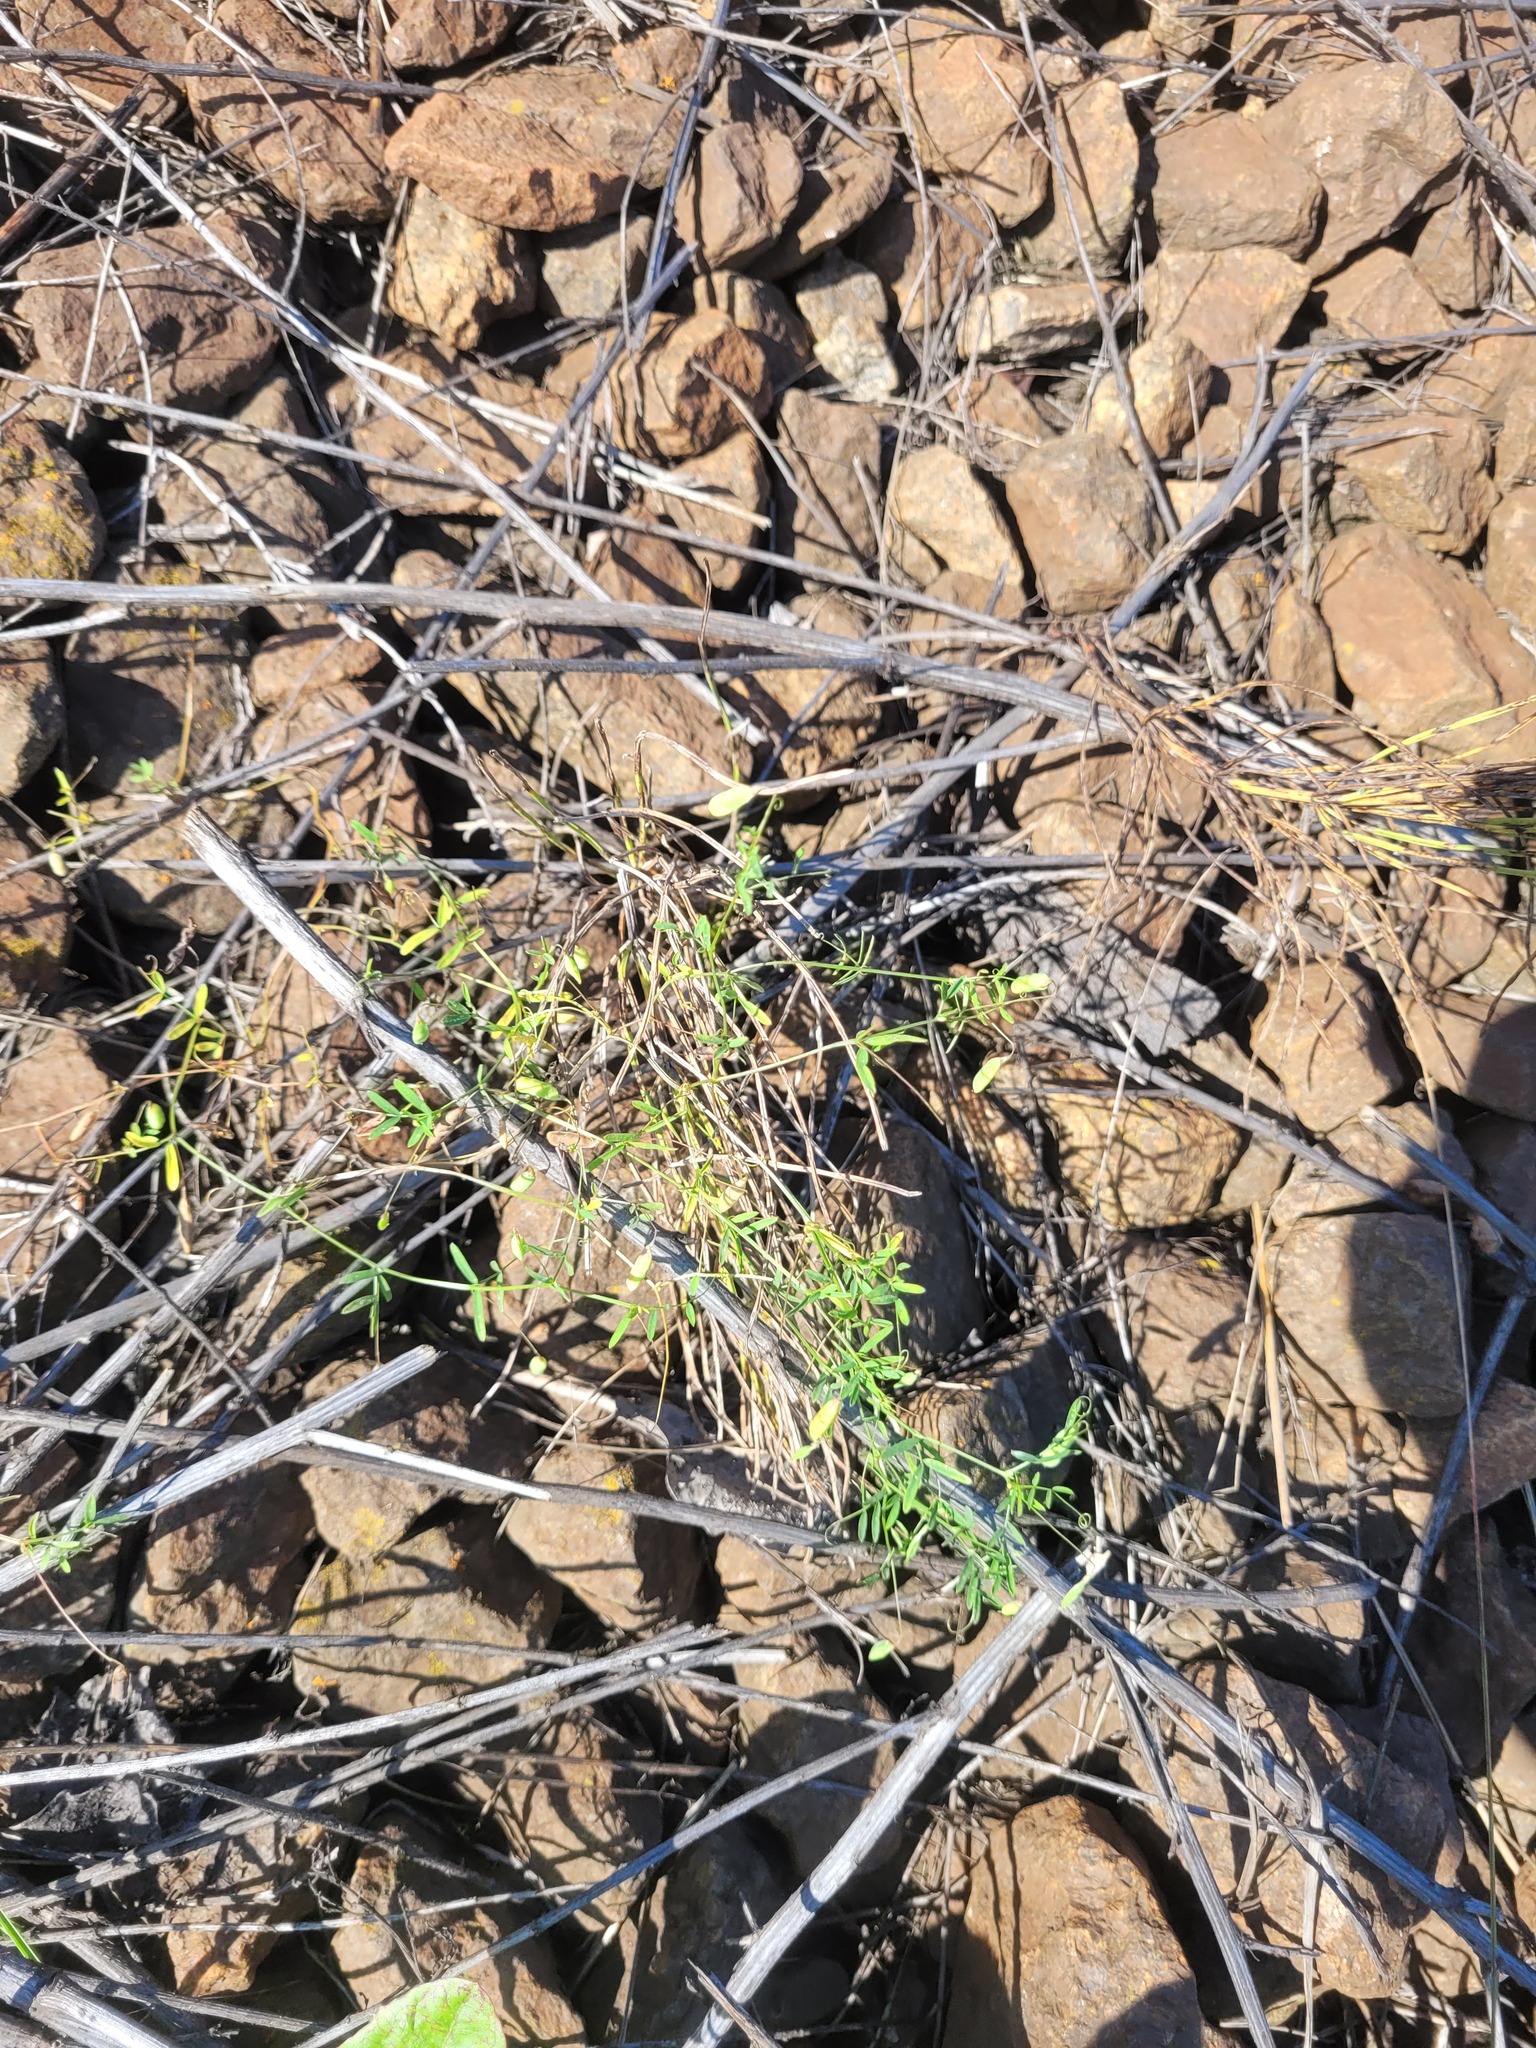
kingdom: Plantae
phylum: Tracheophyta
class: Magnoliopsida
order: Fabales
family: Fabaceae
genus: Vicia
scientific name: Vicia tetrasperma
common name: Smooth tare
